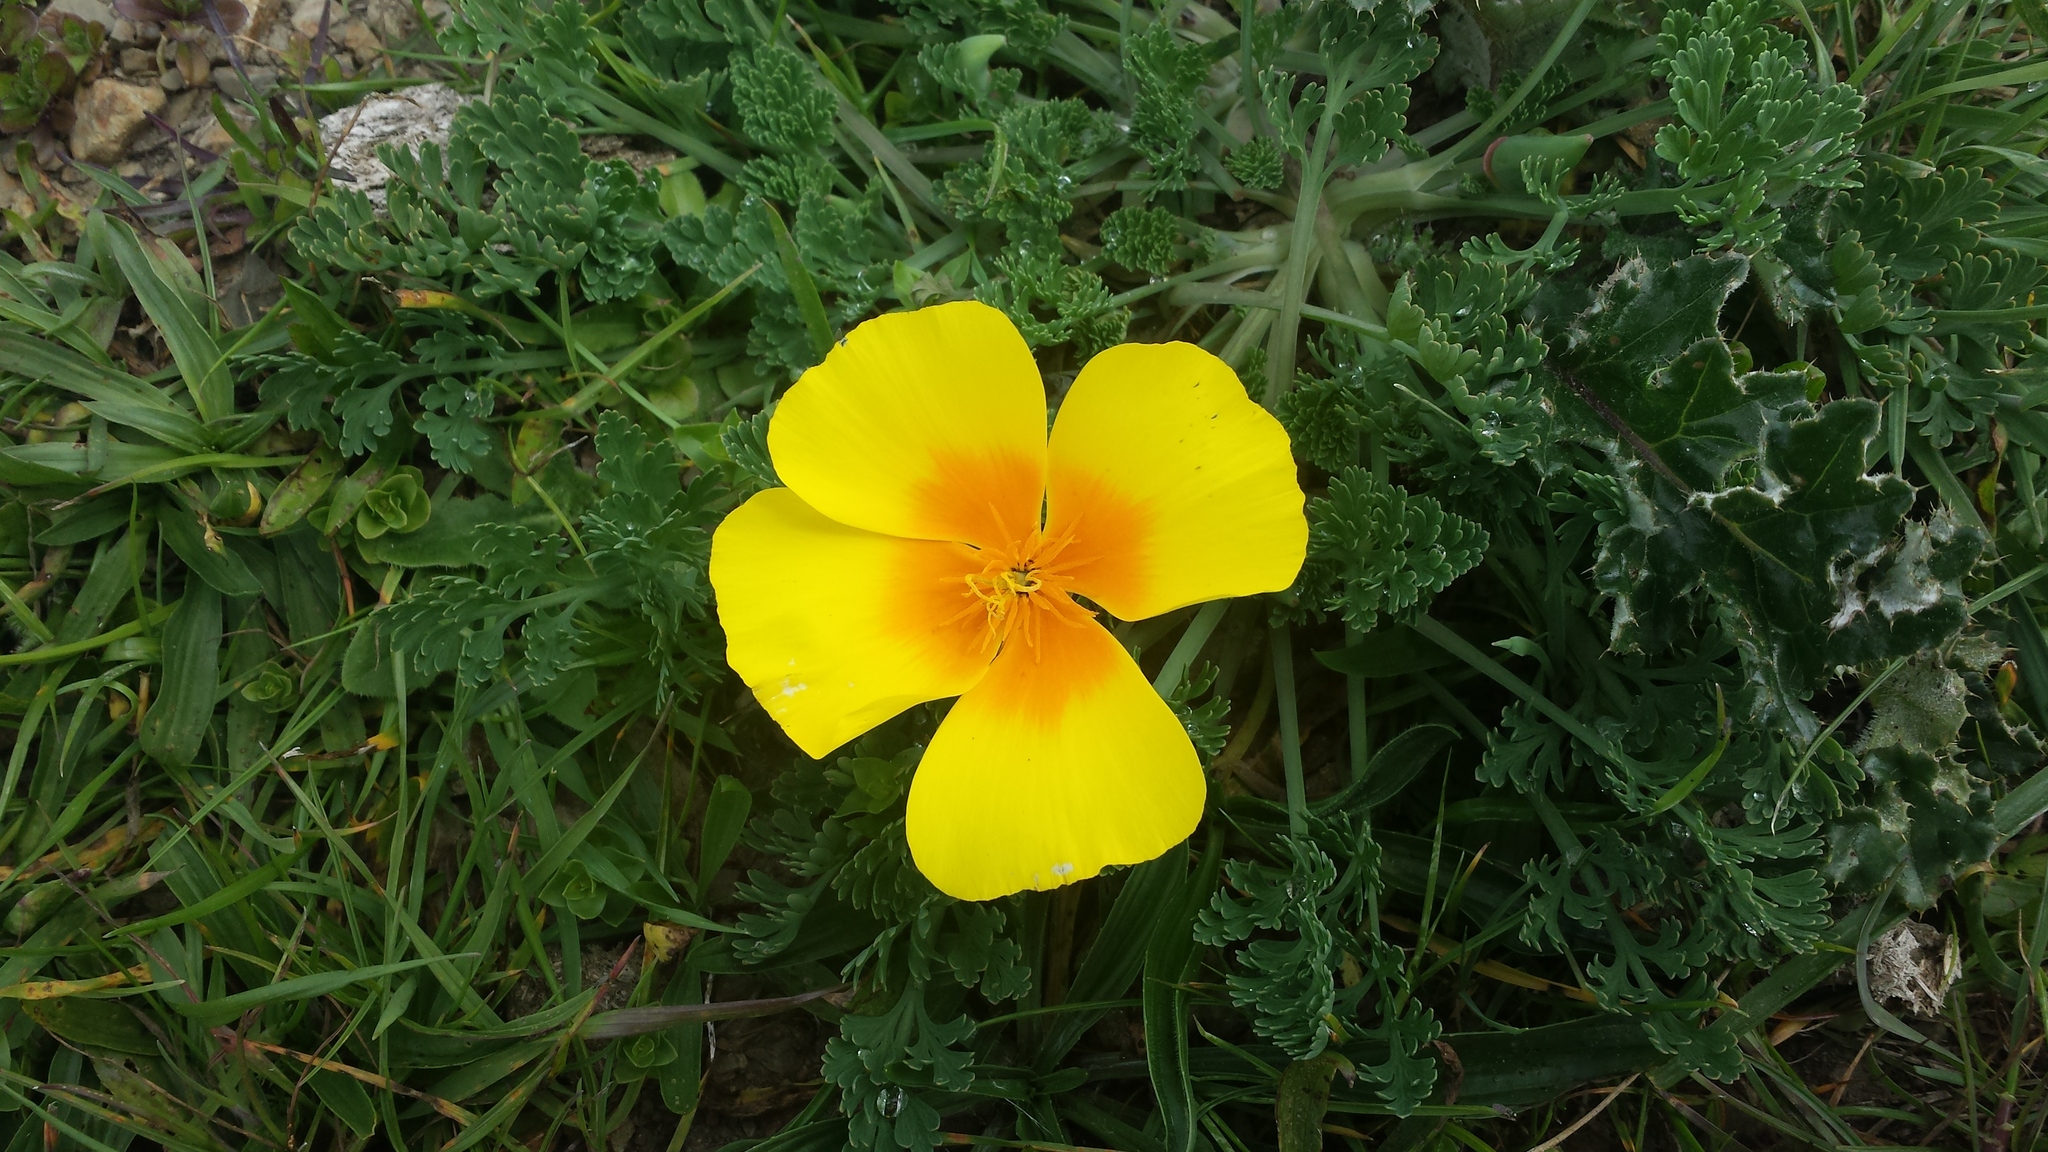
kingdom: Plantae
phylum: Tracheophyta
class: Magnoliopsida
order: Ranunculales
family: Papaveraceae
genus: Eschscholzia
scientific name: Eschscholzia californica
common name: California poppy
